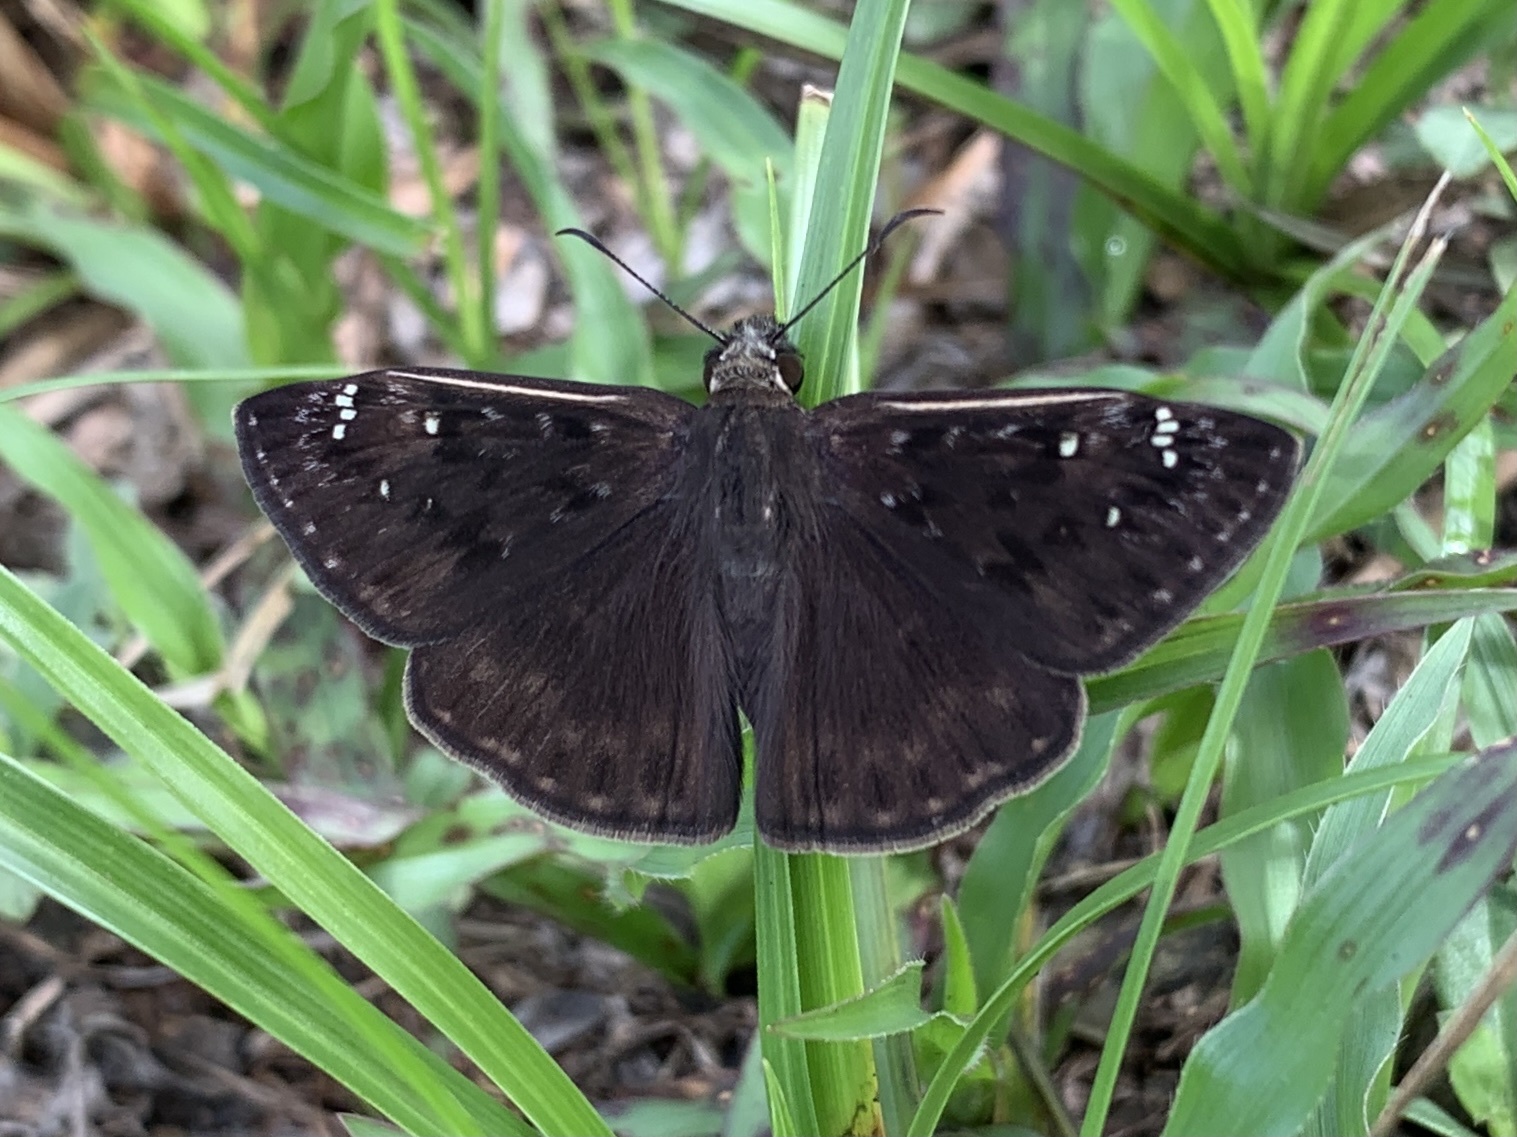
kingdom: Animalia
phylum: Arthropoda
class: Insecta
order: Lepidoptera
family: Hesperiidae
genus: Erynnis
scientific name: Erynnis horatius
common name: Horace's duskywing
